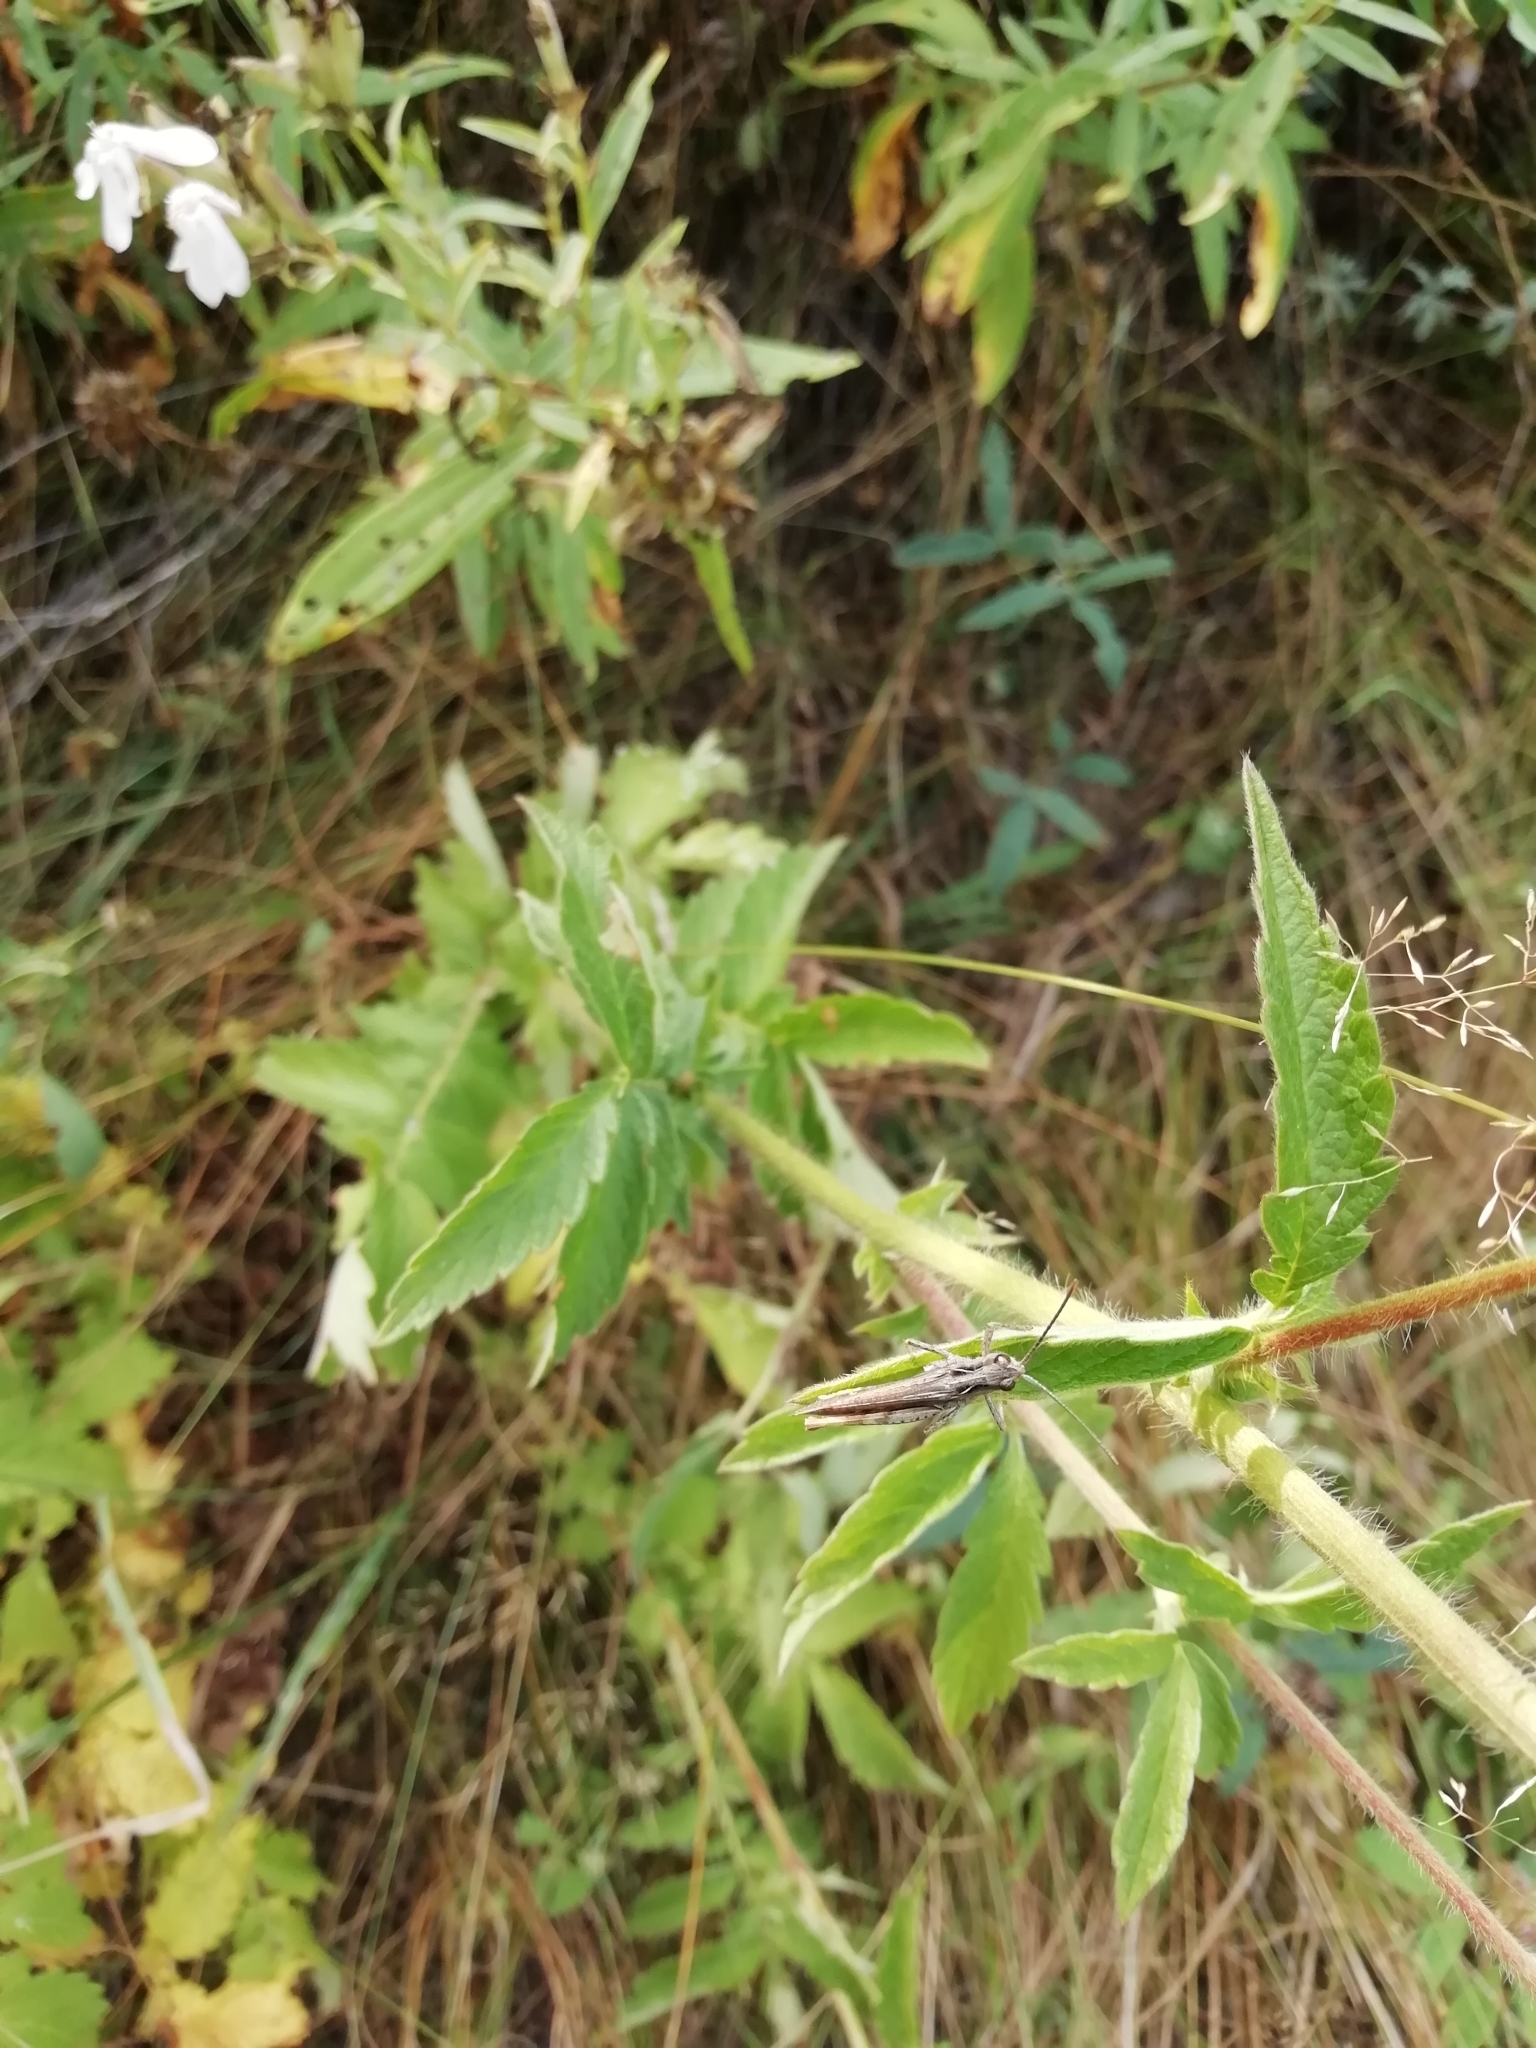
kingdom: Plantae
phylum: Tracheophyta
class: Magnoliopsida
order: Rosales
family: Rosaceae
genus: Agrimonia
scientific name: Agrimonia eupatoria
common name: Agrimony
